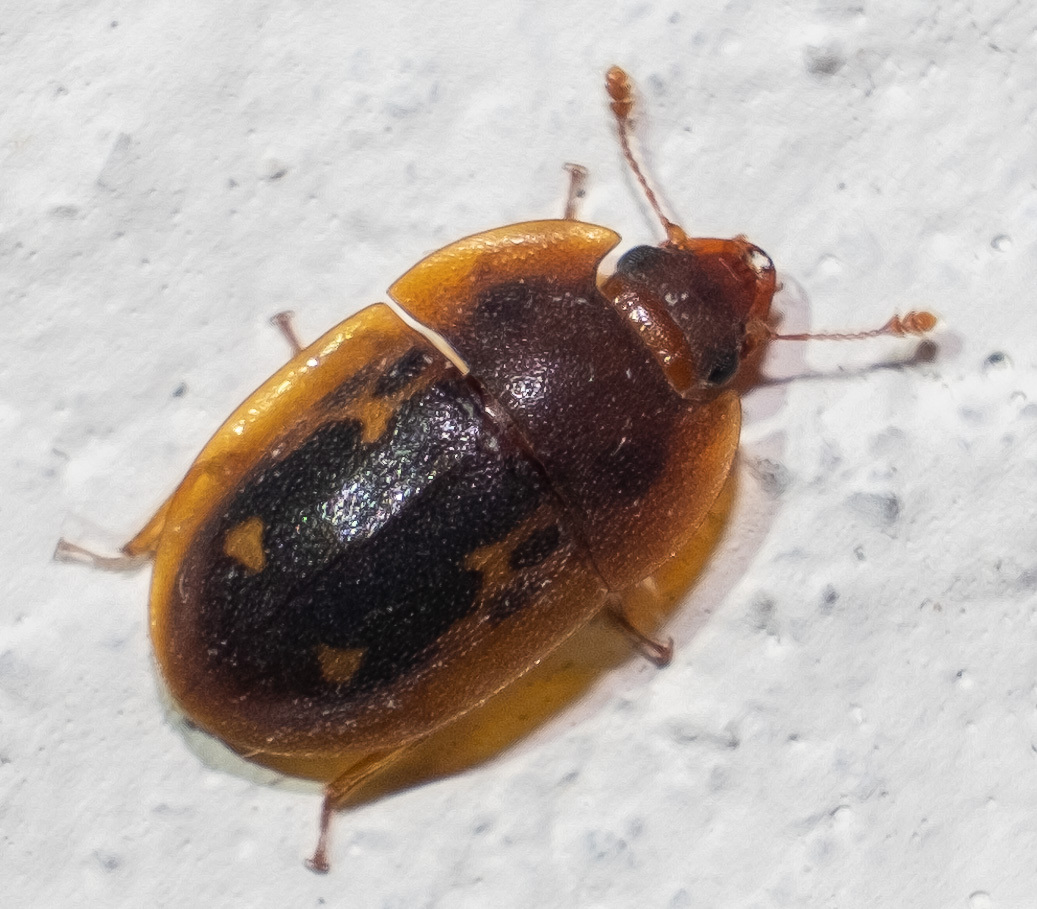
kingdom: Animalia
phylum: Arthropoda
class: Insecta
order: Coleoptera
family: Nitidulidae
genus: Prometopia
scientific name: Prometopia sexmaculata
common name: Six-spotted sap-feeding beetle
